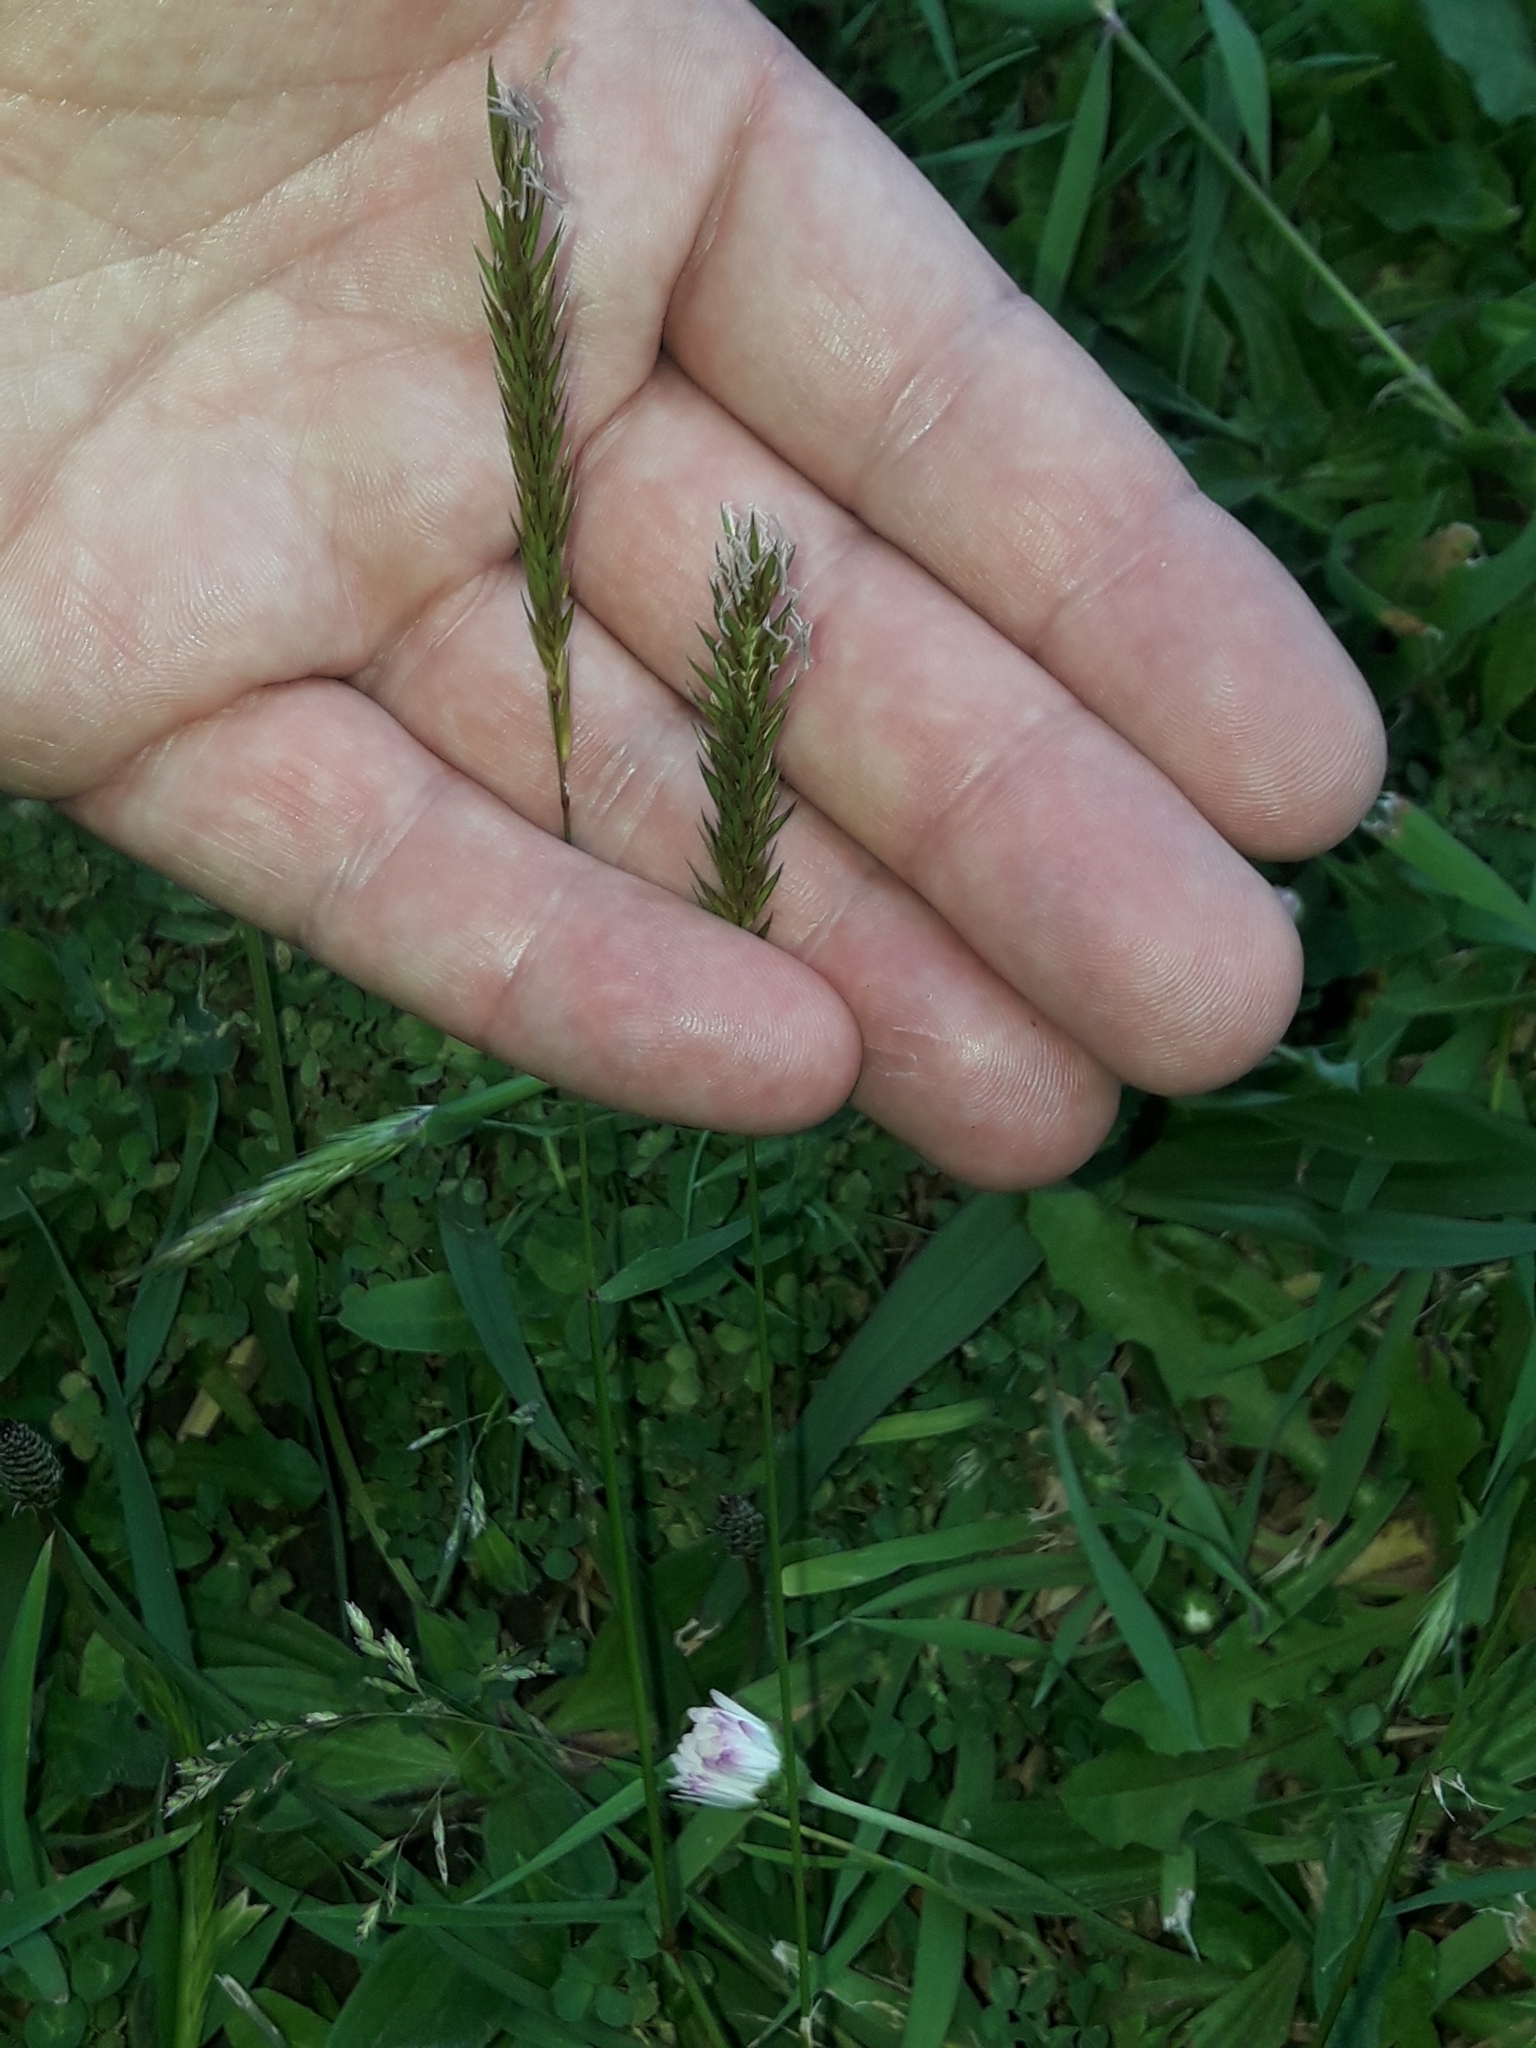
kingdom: Plantae
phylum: Tracheophyta
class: Liliopsida
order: Poales
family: Poaceae
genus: Anthoxanthum
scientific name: Anthoxanthum odoratum
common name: Sweet vernalgrass
